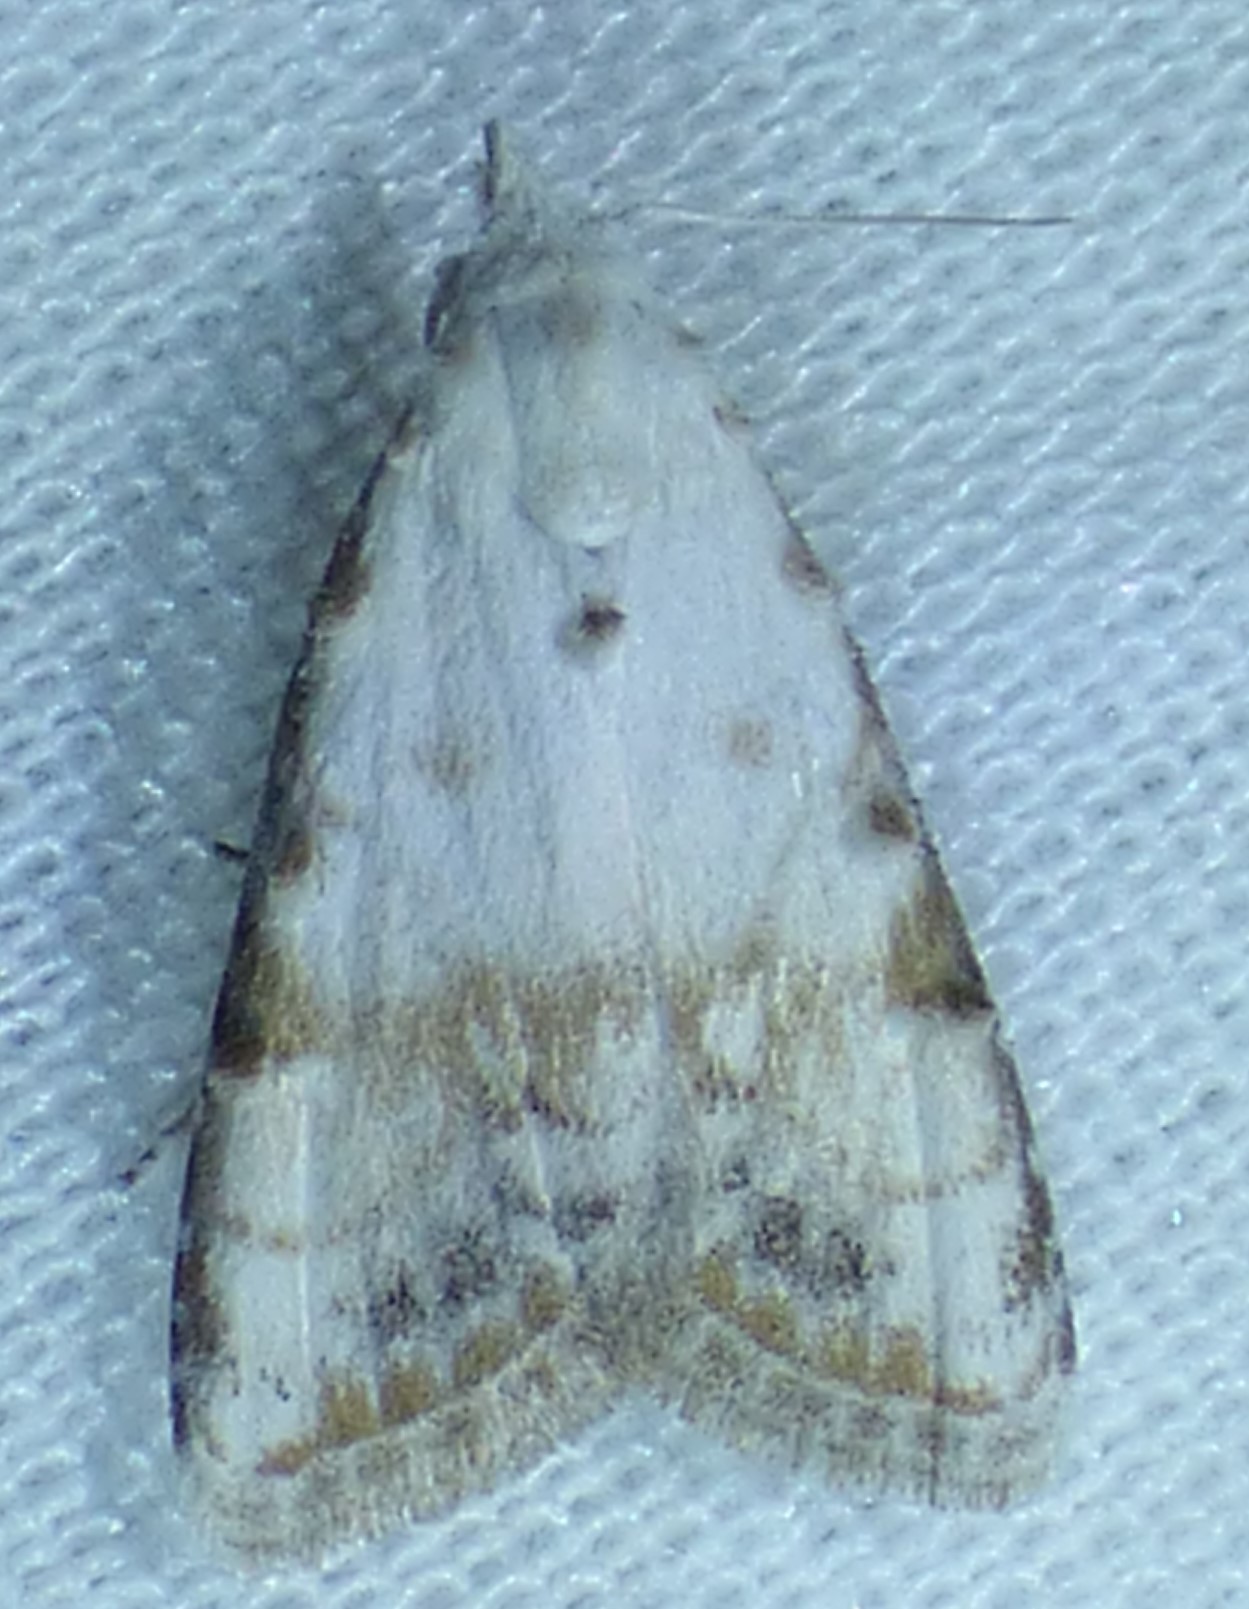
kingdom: Animalia
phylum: Arthropoda
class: Insecta
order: Lepidoptera
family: Nolidae
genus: Nola
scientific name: Nola cereella
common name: Sorghum webworm moth
